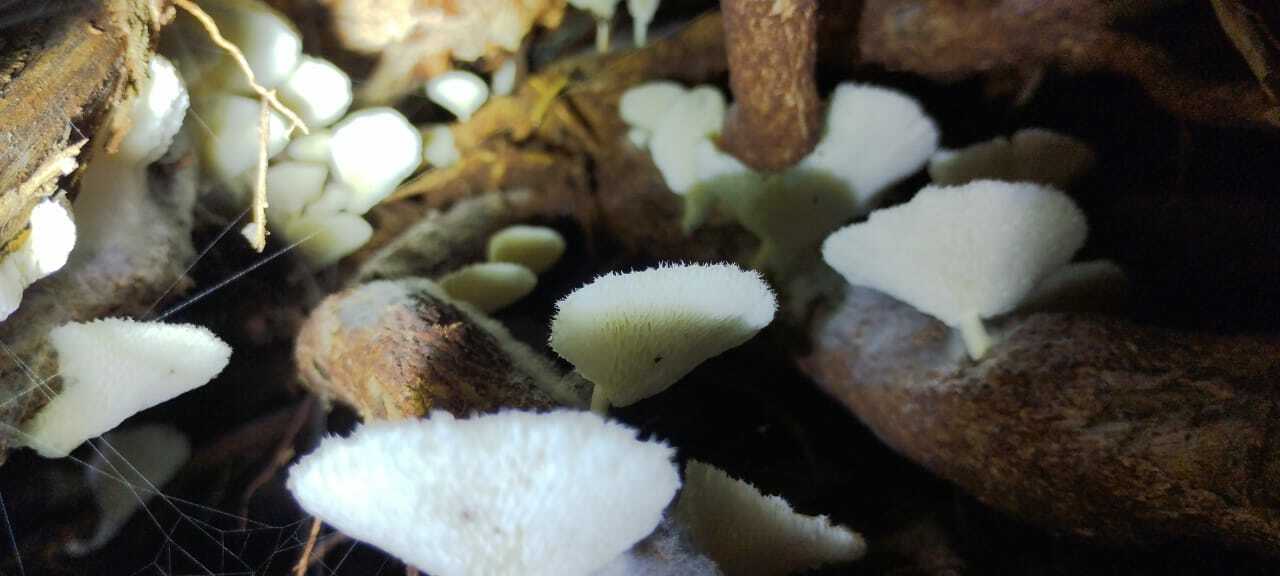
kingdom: Fungi
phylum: Basidiomycota
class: Agaricomycetes
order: Polyporales
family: Polyporaceae
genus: Favolus
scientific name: Favolus tenuiculus
